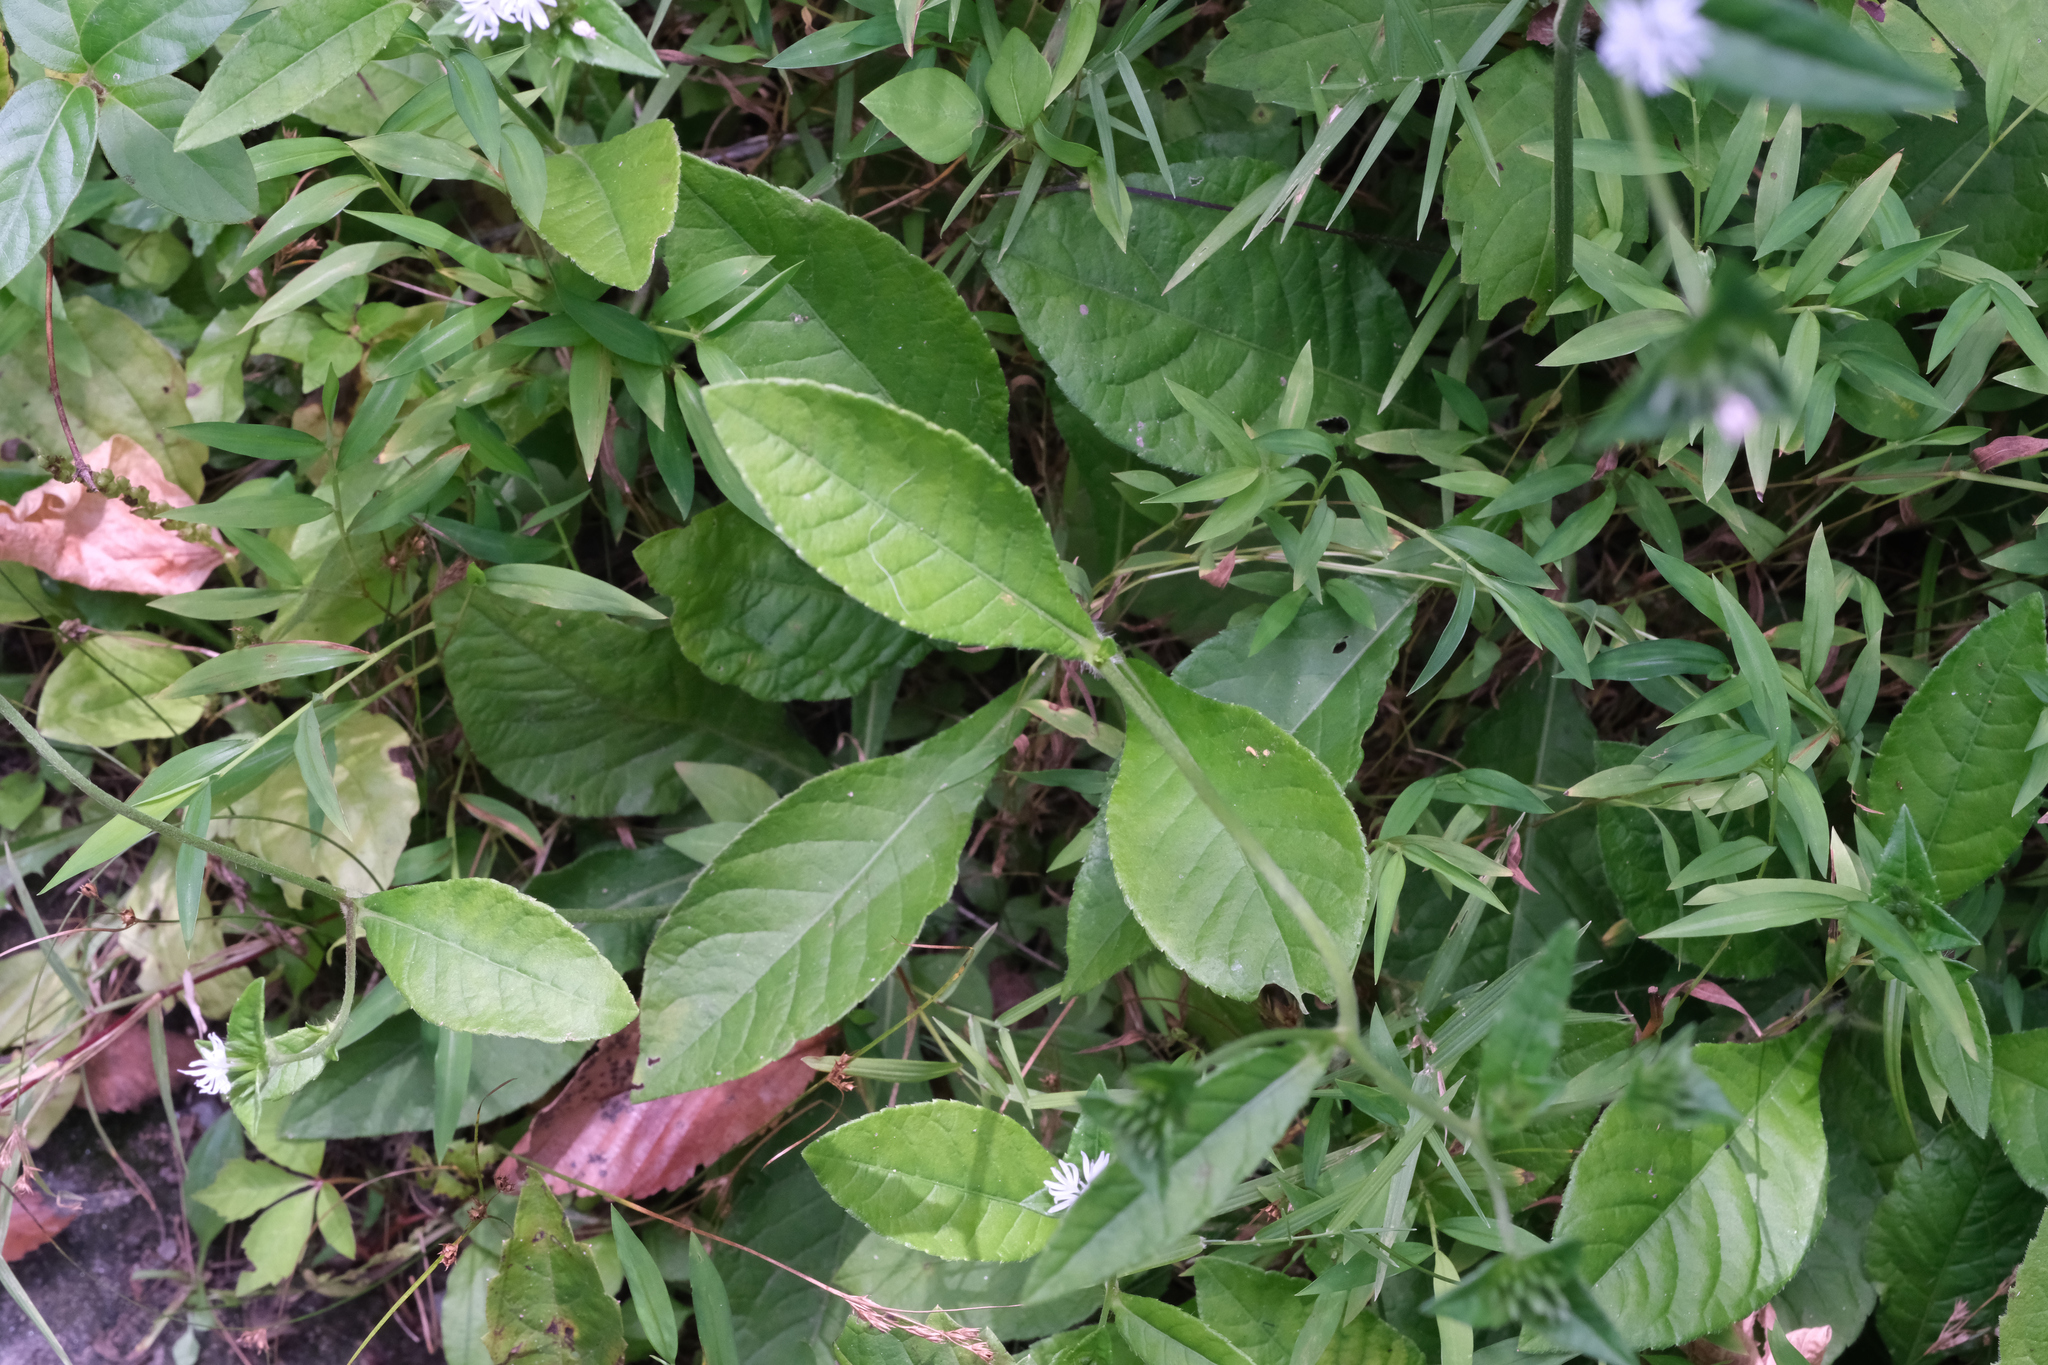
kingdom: Plantae
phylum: Tracheophyta
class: Magnoliopsida
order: Asterales
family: Asteraceae
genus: Elephantopus
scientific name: Elephantopus carolinianus
